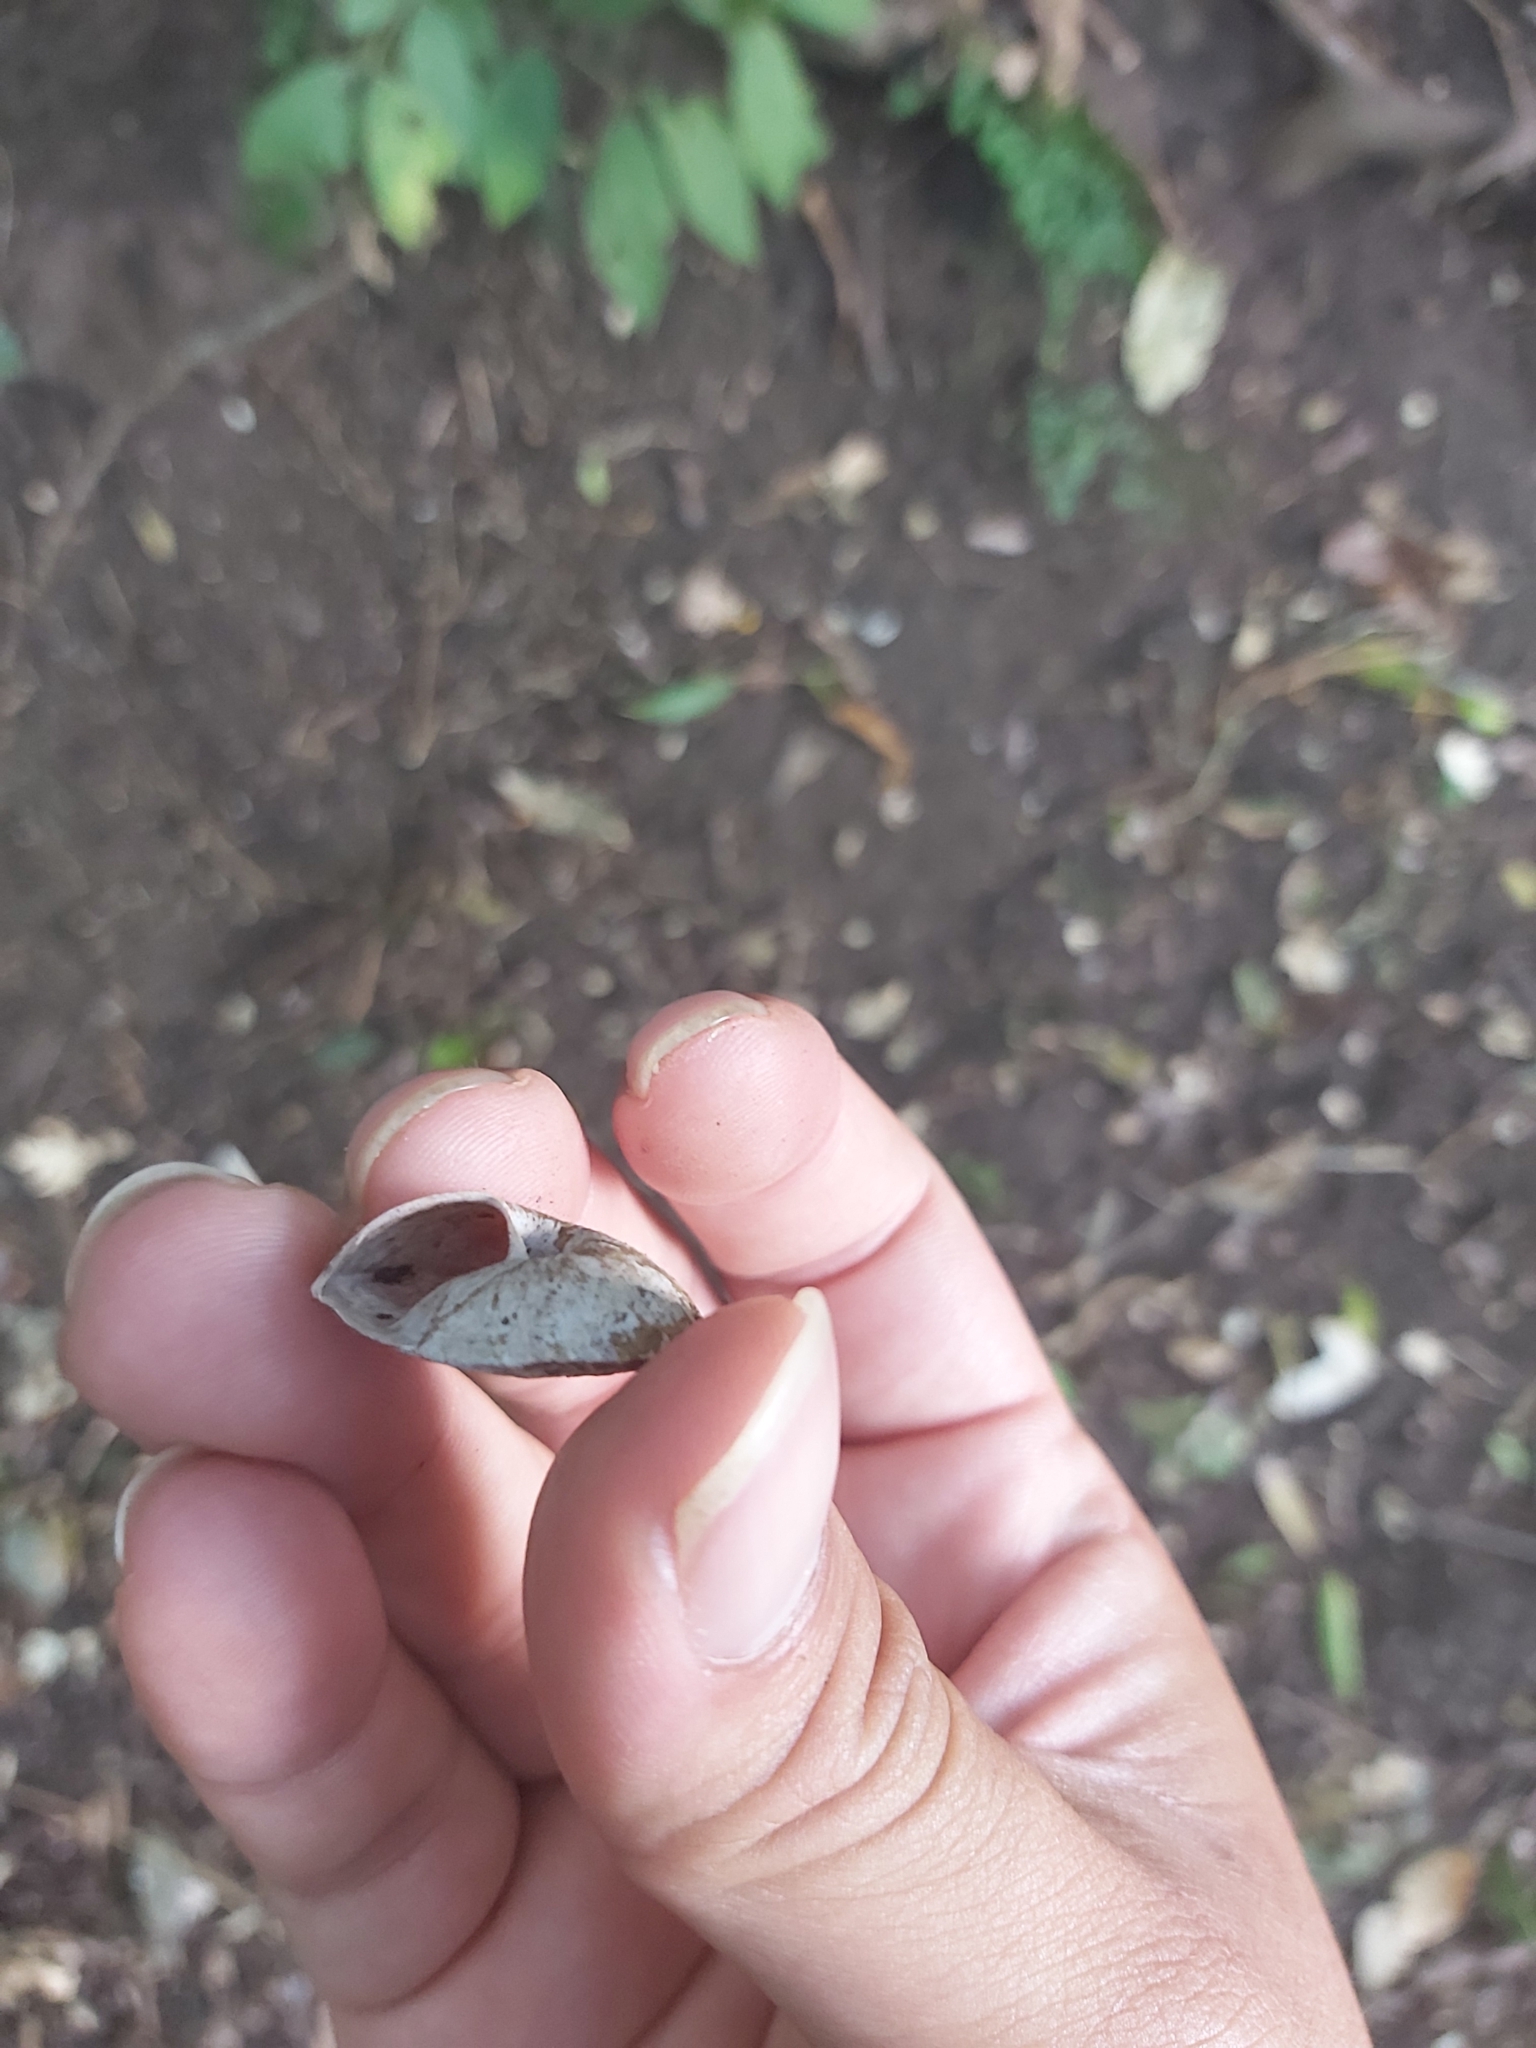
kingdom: Animalia
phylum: Mollusca
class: Gastropoda
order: Stylommatophora
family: Camaenidae
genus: Jacksonena
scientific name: Jacksonena rudis
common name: Atherton tableland keeled snail
